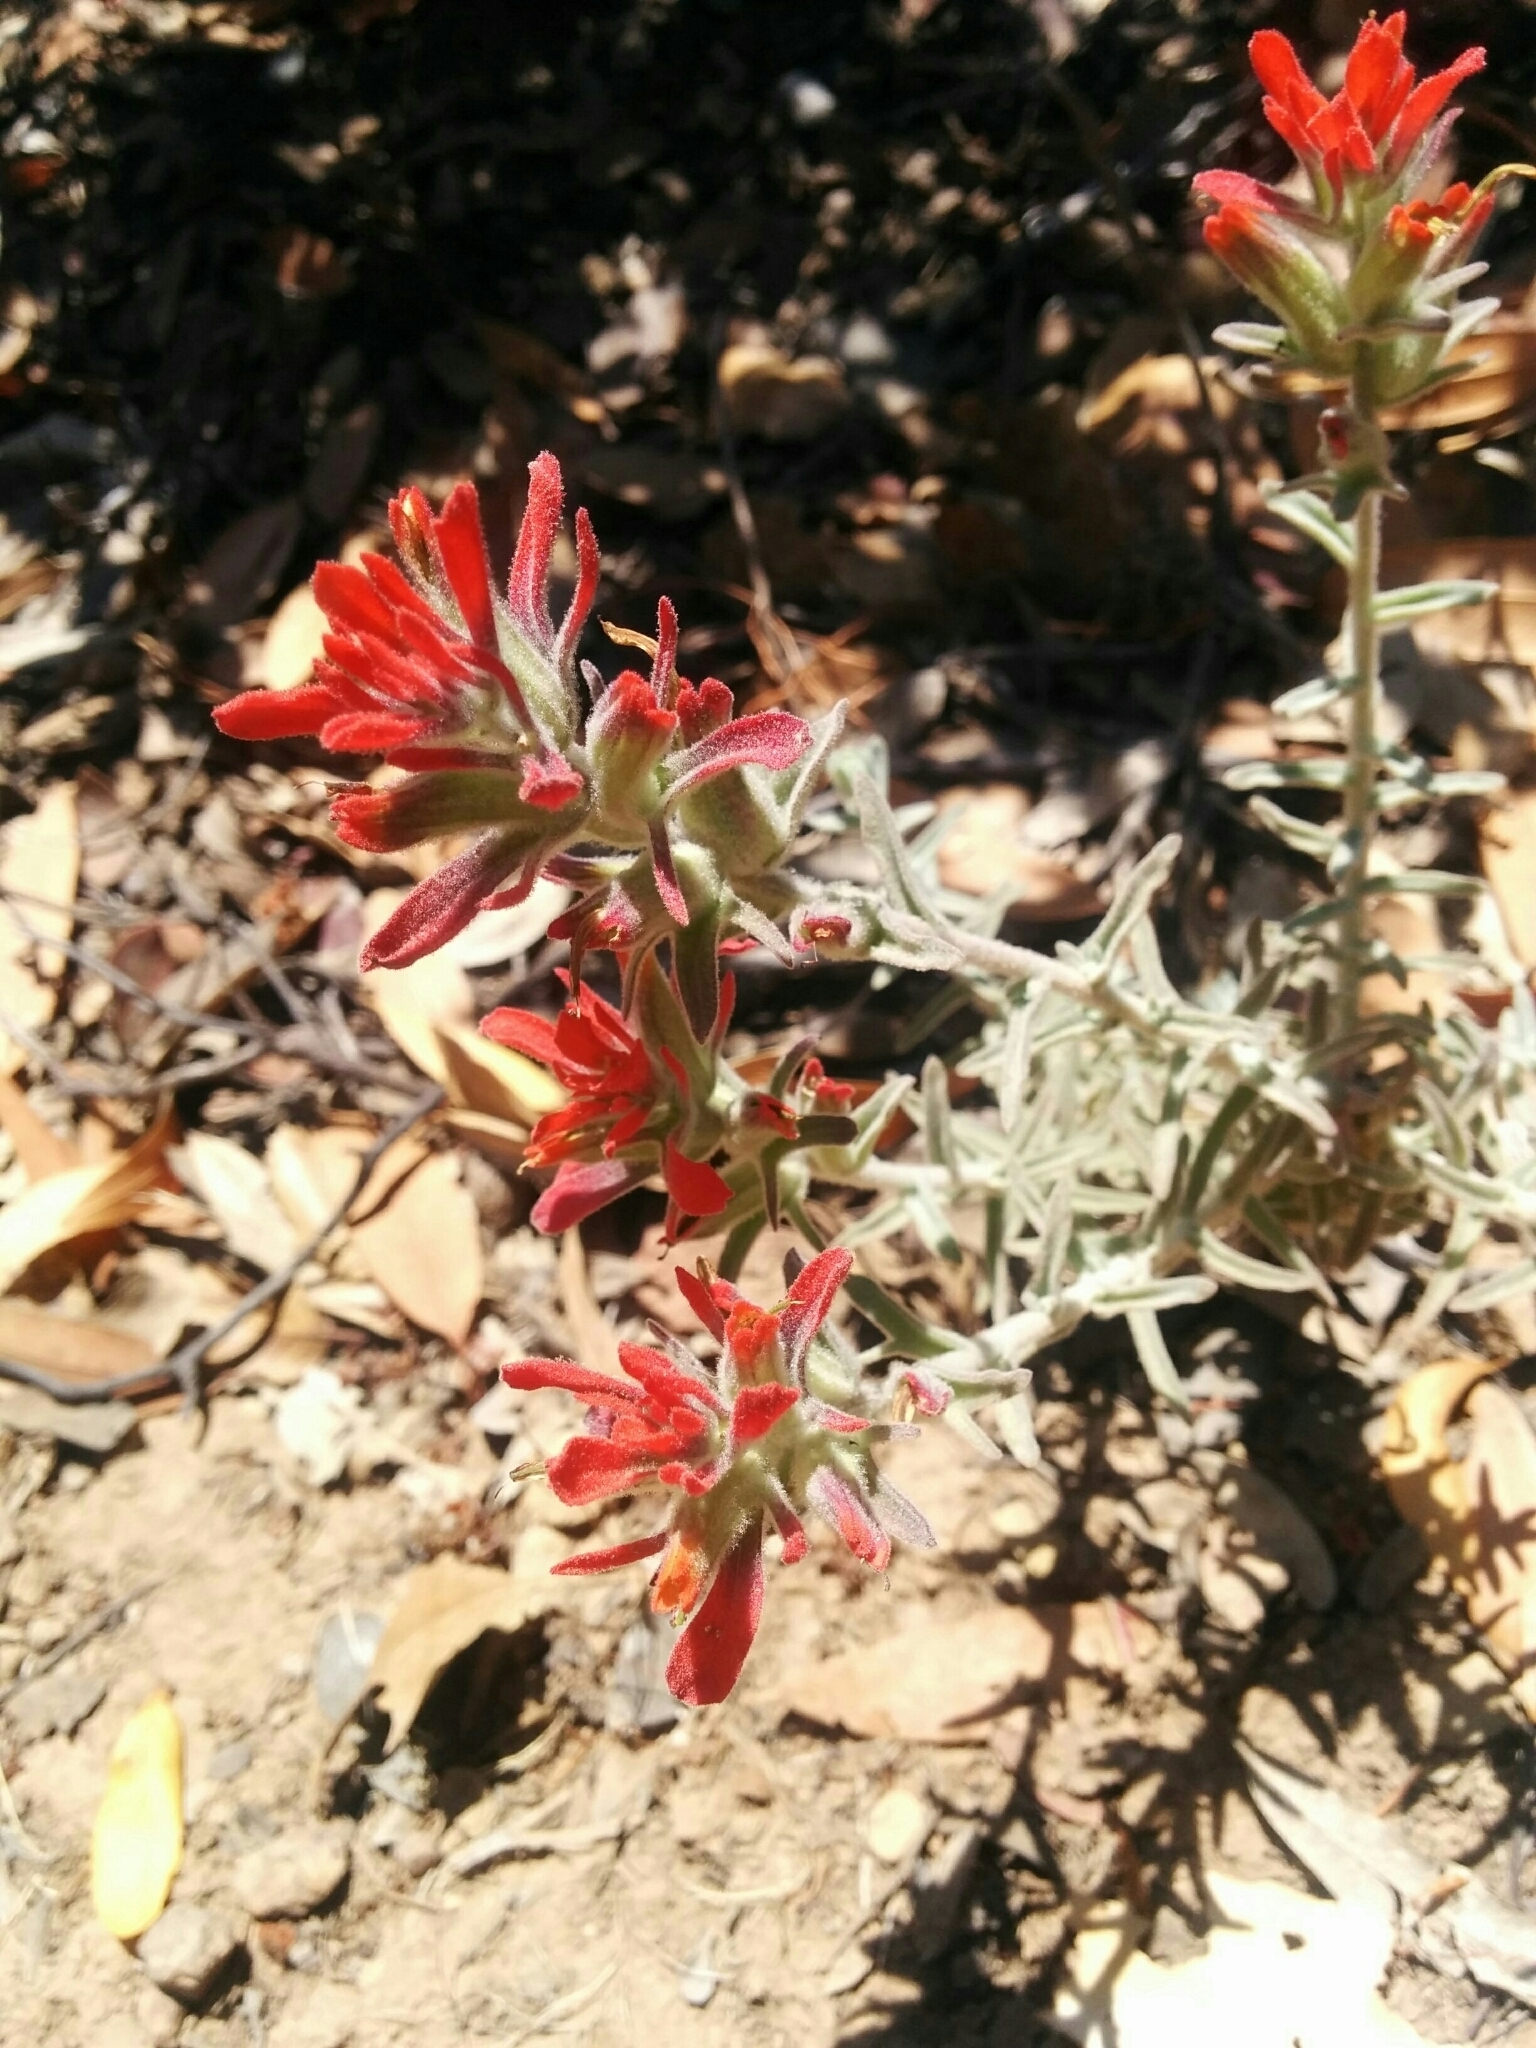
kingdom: Plantae
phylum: Tracheophyta
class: Magnoliopsida
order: Lamiales
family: Orobanchaceae
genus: Castilleja
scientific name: Castilleja foliolosa
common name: Woolly indian paintbrush
